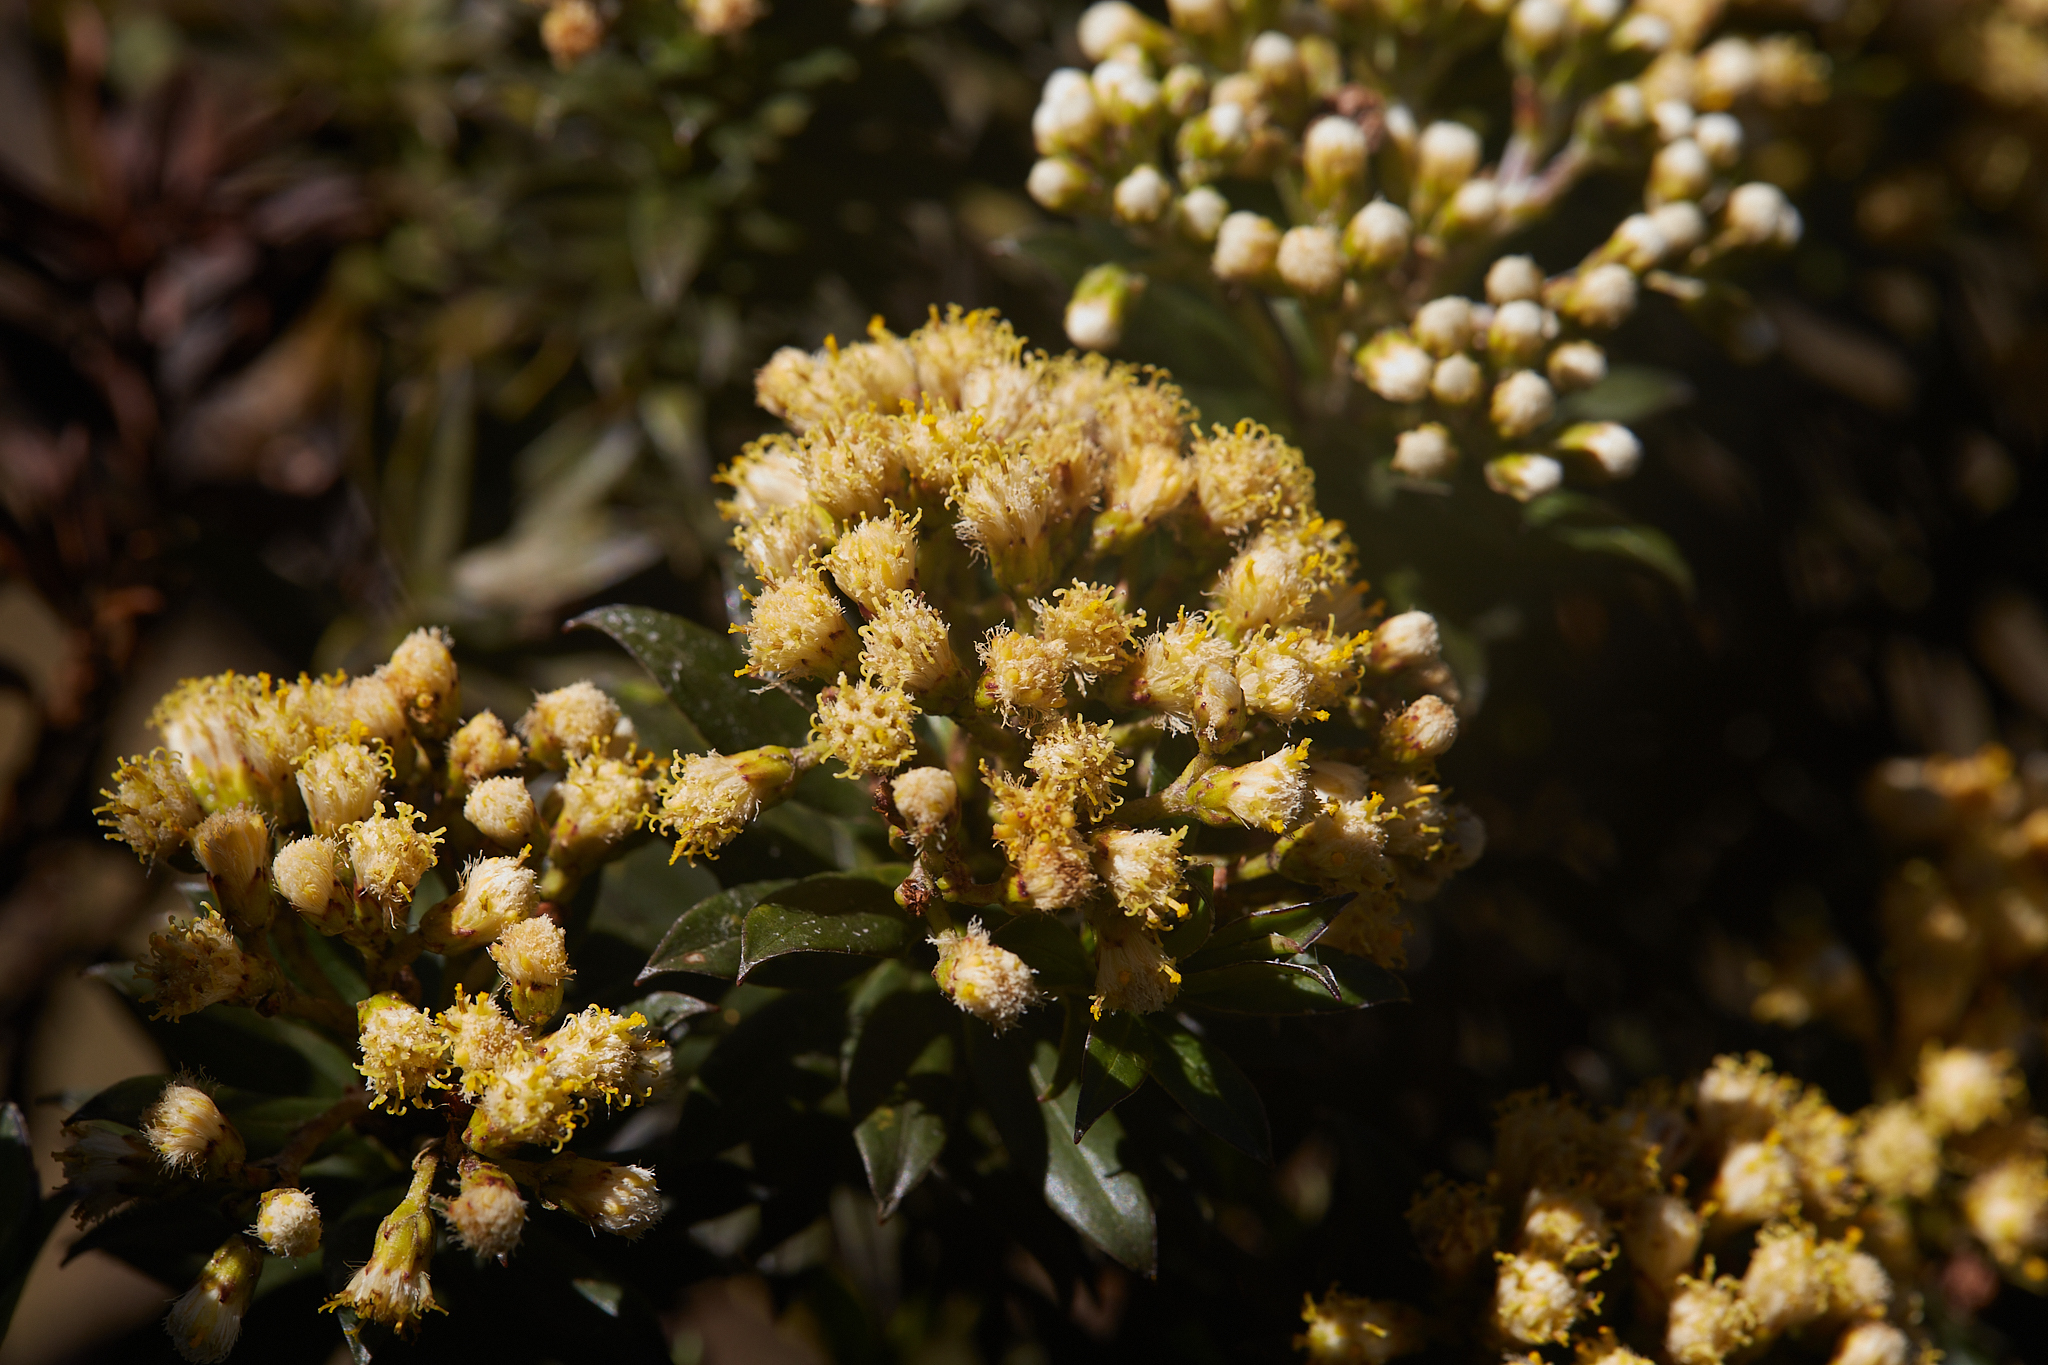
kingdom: Plantae
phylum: Tracheophyta
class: Magnoliopsida
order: Asterales
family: Asteraceae
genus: Monticalia
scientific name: Monticalia firmipes
